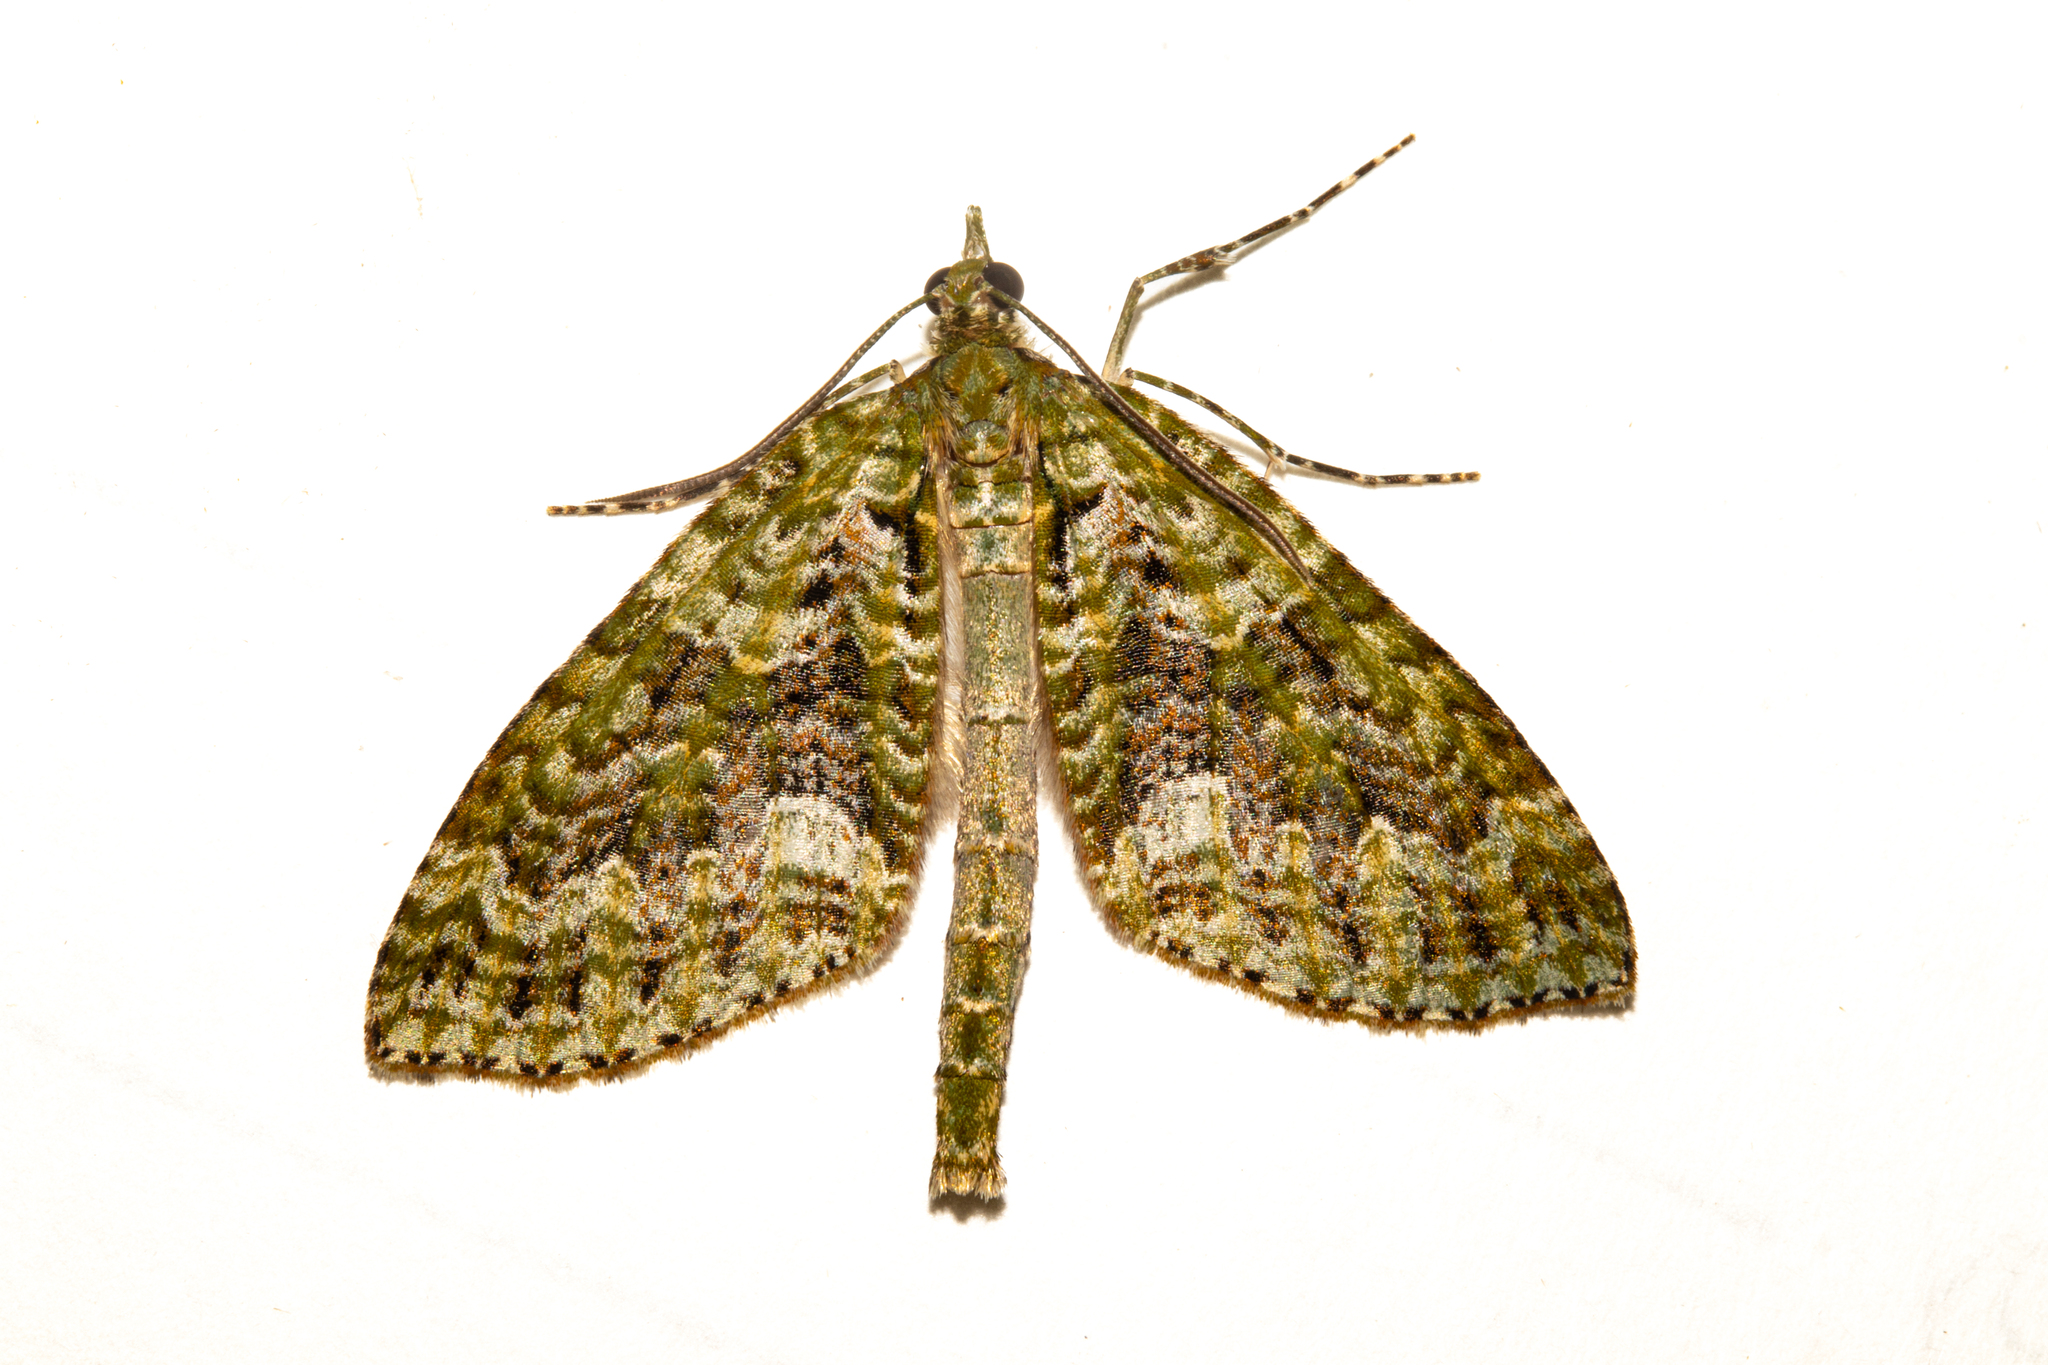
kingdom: Animalia
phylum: Arthropoda
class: Insecta
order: Lepidoptera
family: Geometridae
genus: Tatosoma
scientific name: Tatosoma agrionata
